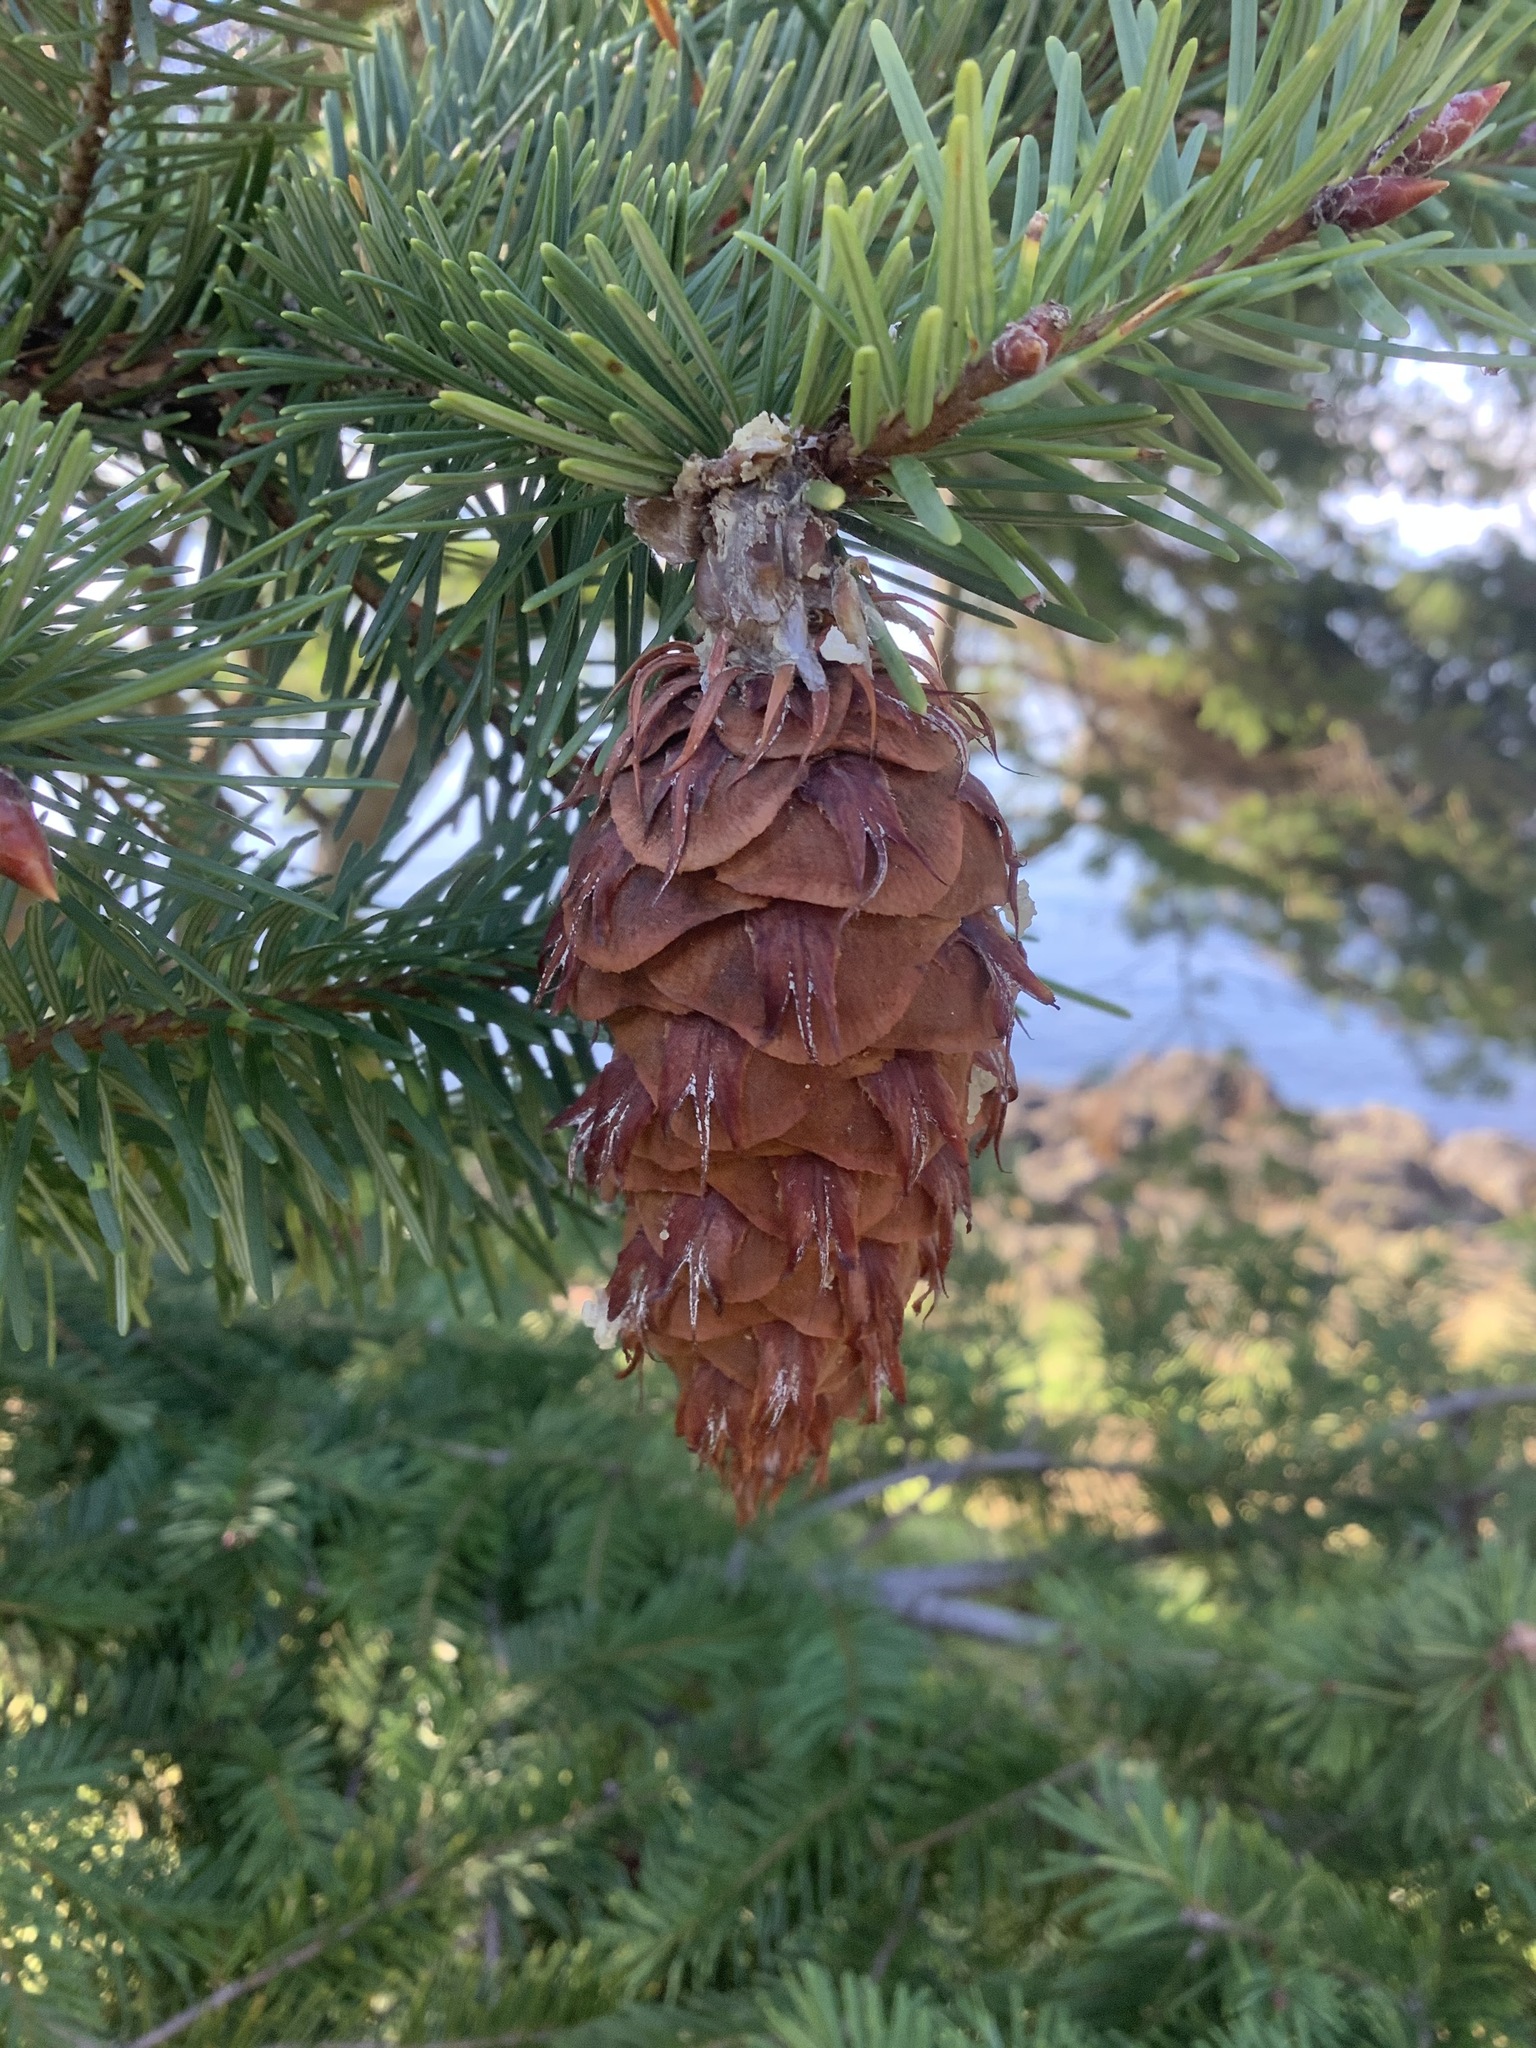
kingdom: Plantae
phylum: Tracheophyta
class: Pinopsida
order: Pinales
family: Pinaceae
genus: Pseudotsuga
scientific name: Pseudotsuga menziesii
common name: Douglas fir
